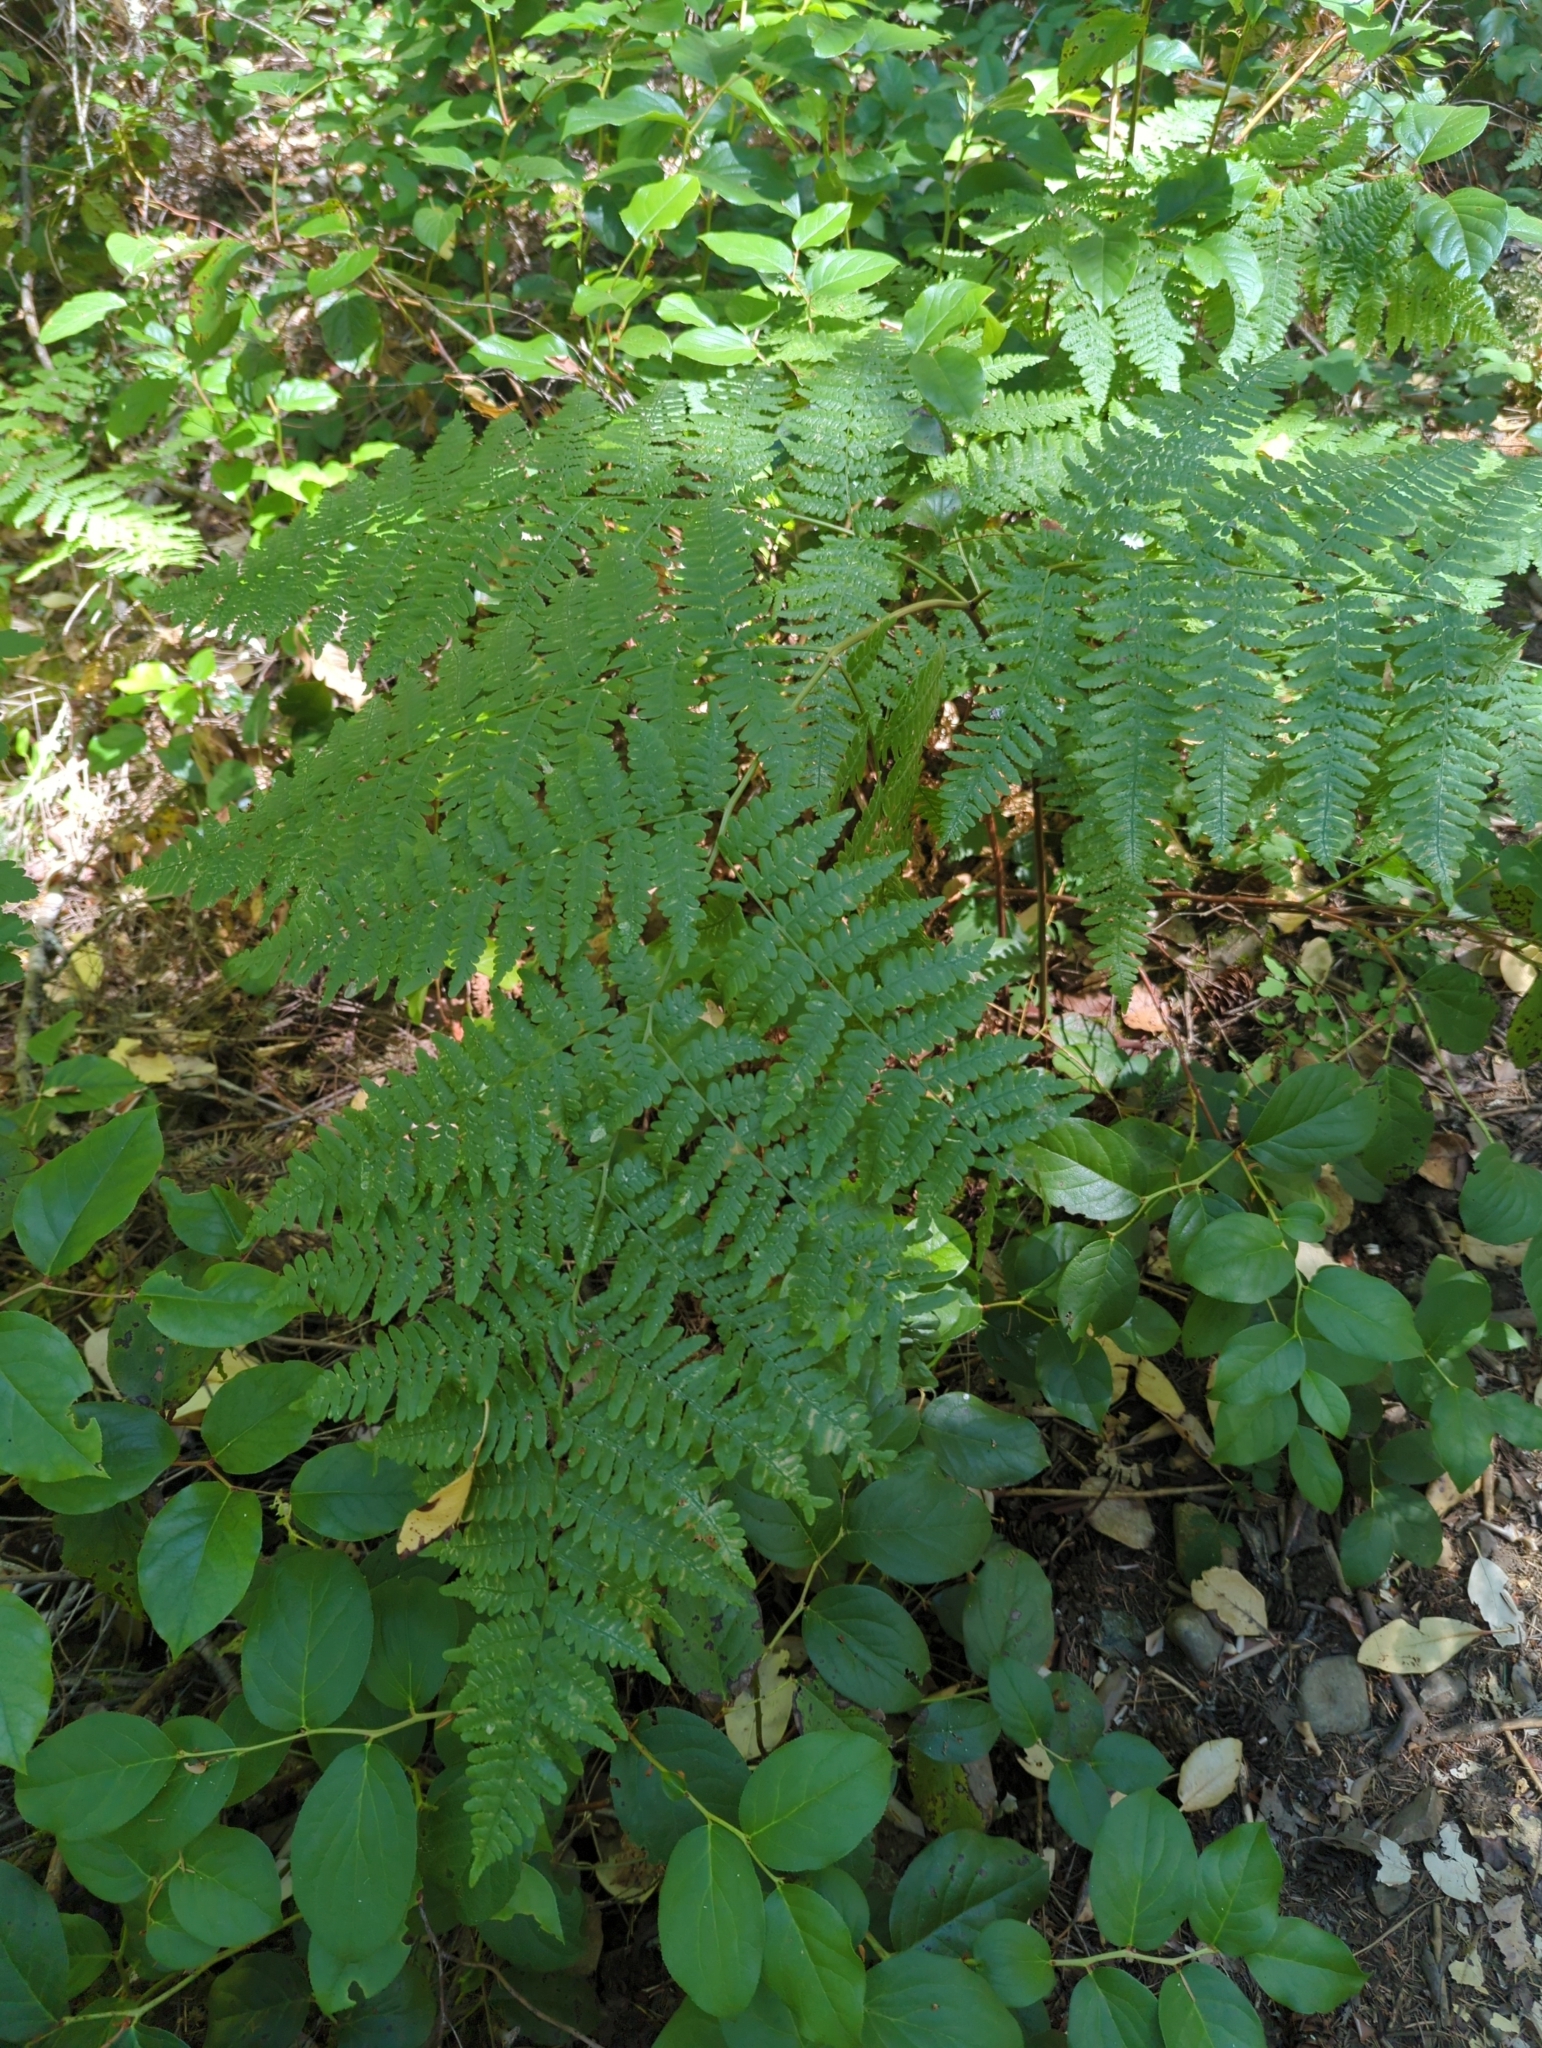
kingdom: Plantae
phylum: Tracheophyta
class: Polypodiopsida
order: Polypodiales
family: Dennstaedtiaceae
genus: Pteridium
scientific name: Pteridium aquilinum
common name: Bracken
